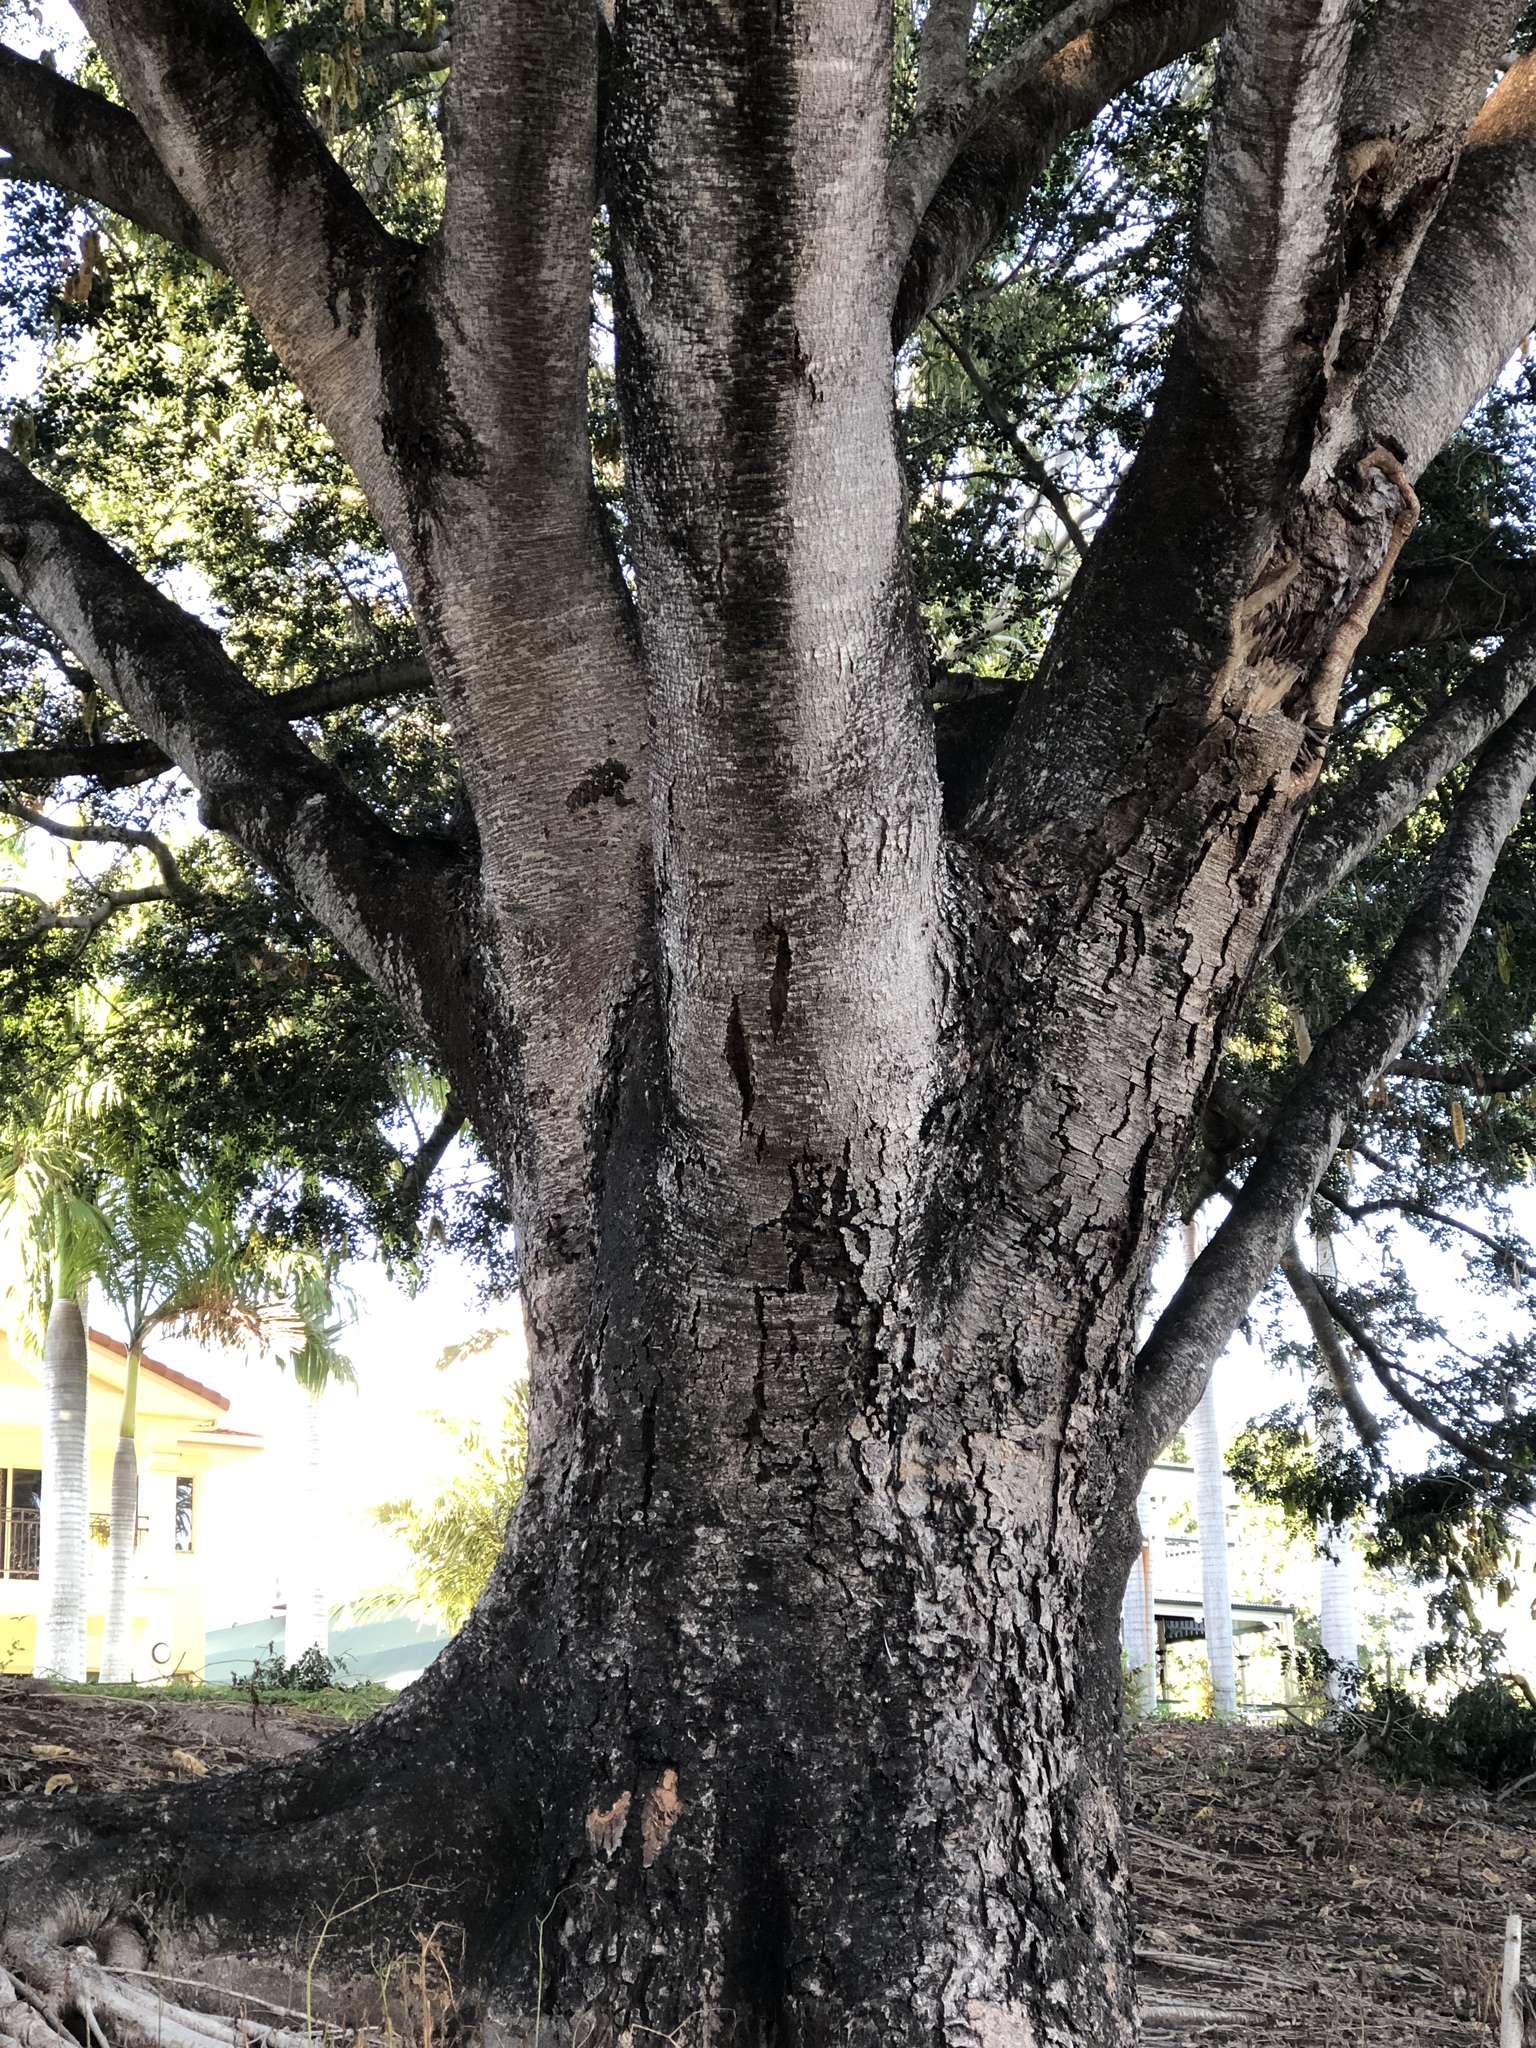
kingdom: Plantae
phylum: Tracheophyta
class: Magnoliopsida
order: Fabales
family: Fabaceae
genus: Albizia
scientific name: Albizia lebbeck
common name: Woman's tongue
